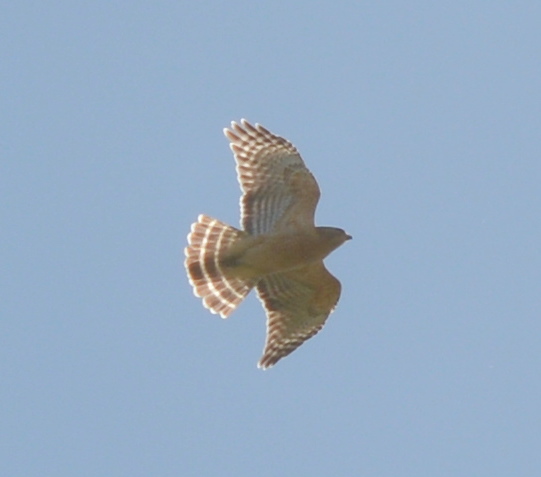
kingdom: Animalia
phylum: Chordata
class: Aves
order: Accipitriformes
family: Accipitridae
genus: Buteo
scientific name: Buteo lineatus
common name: Red-shouldered hawk
